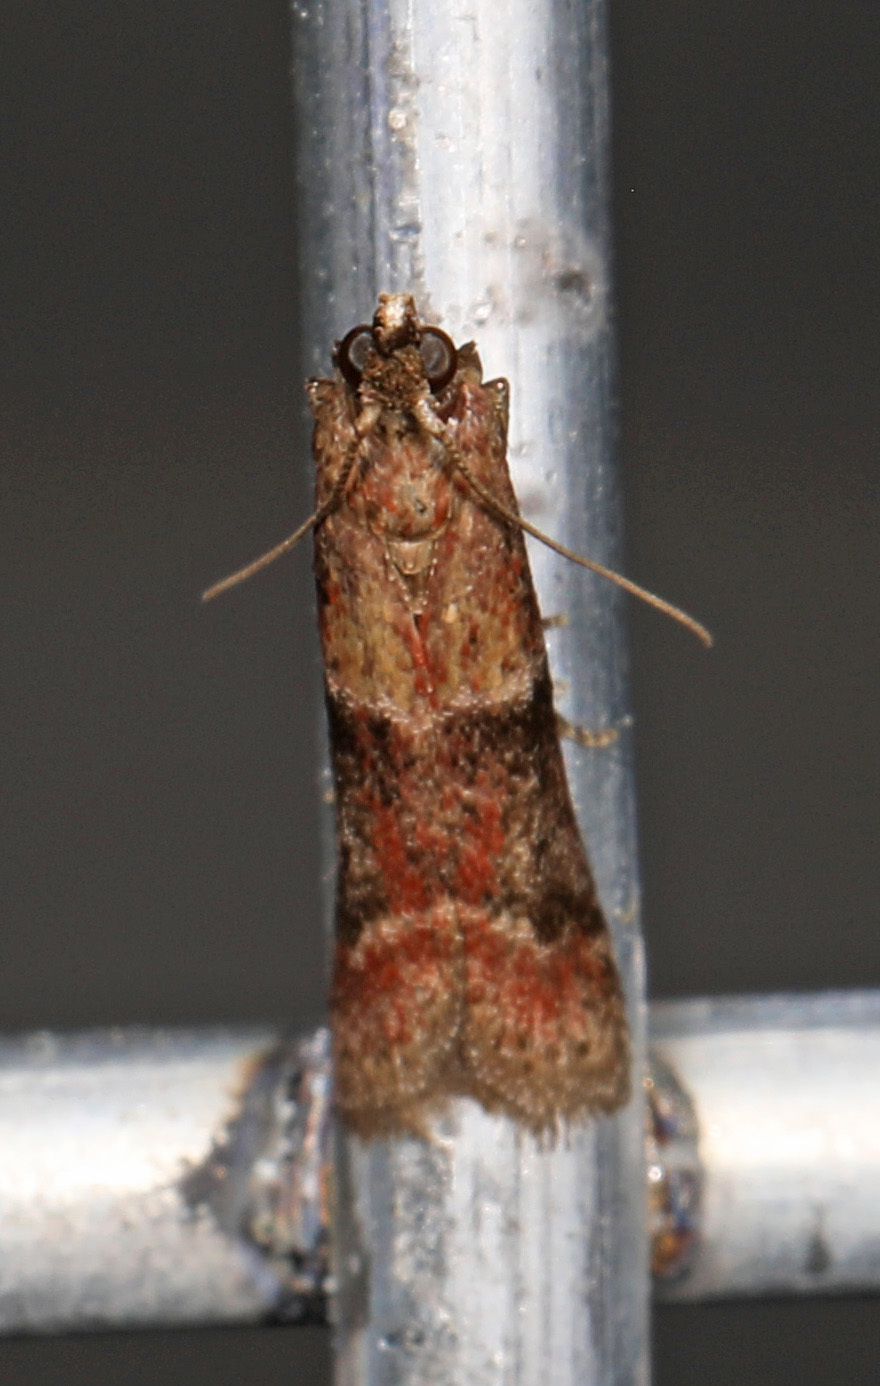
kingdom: Animalia
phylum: Arthropoda
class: Insecta
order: Lepidoptera
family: Pyralidae
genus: Ephestiodes
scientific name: Ephestiodes infimella
